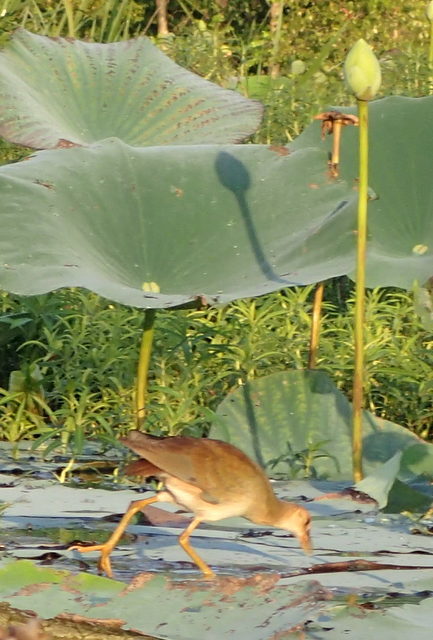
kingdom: Animalia
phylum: Chordata
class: Aves
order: Gruiformes
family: Rallidae
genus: Porphyrio
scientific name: Porphyrio martinica
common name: Purple gallinule
